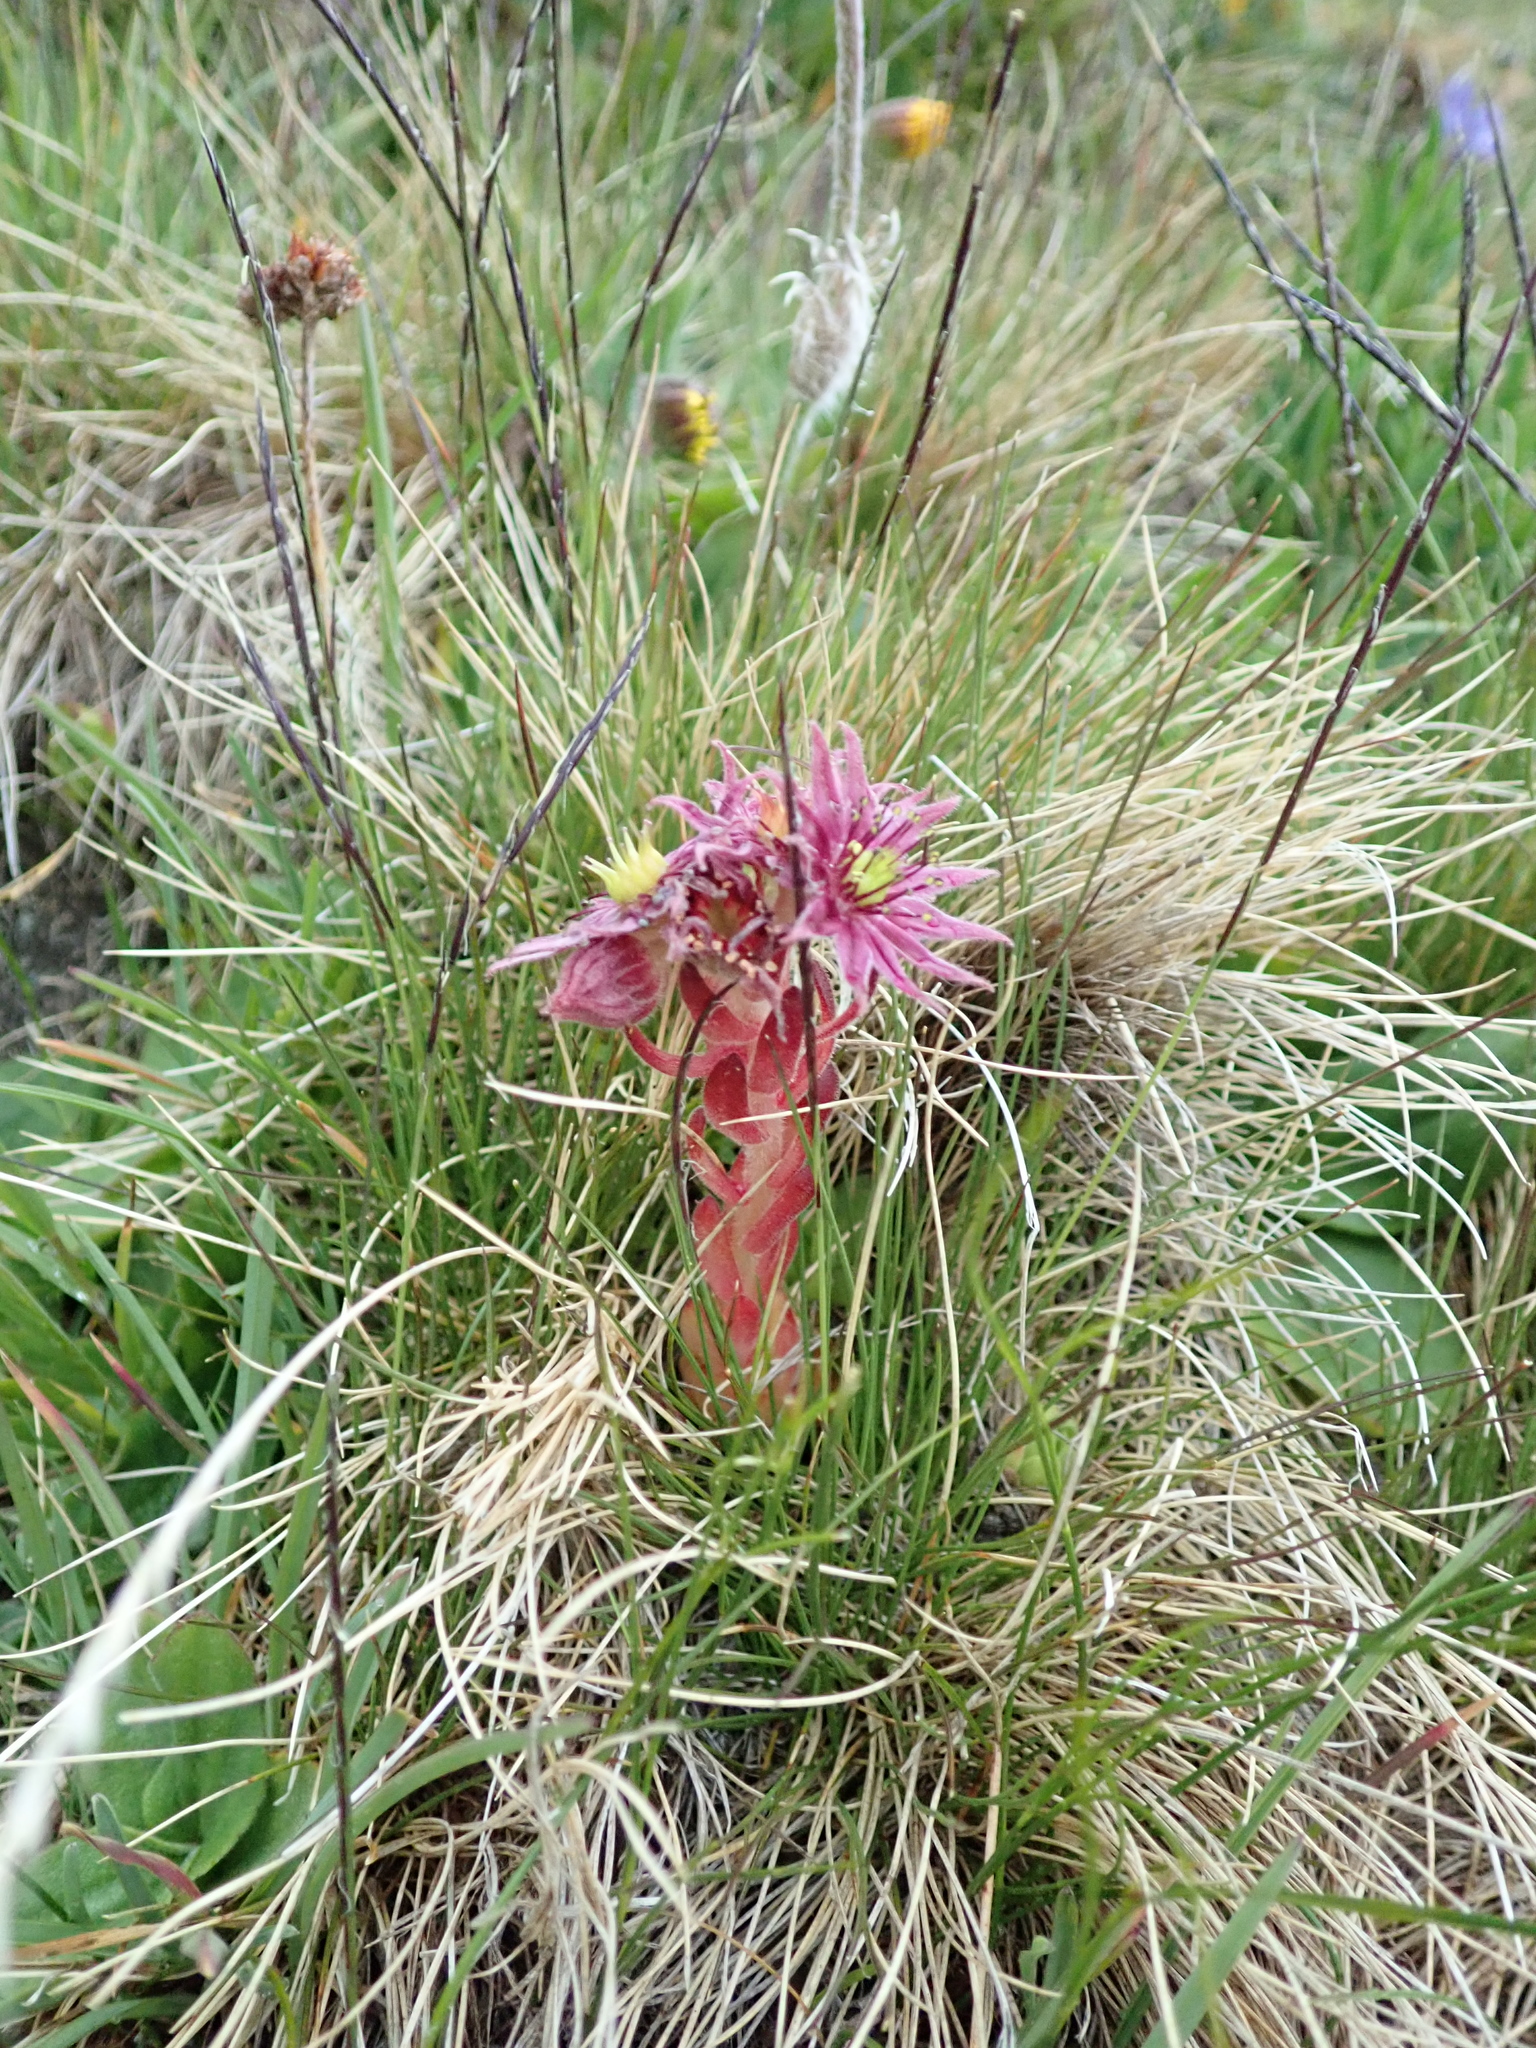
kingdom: Plantae
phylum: Tracheophyta
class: Magnoliopsida
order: Saxifragales
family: Crassulaceae
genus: Sempervivum
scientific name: Sempervivum montanum
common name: Mountain house-leek
